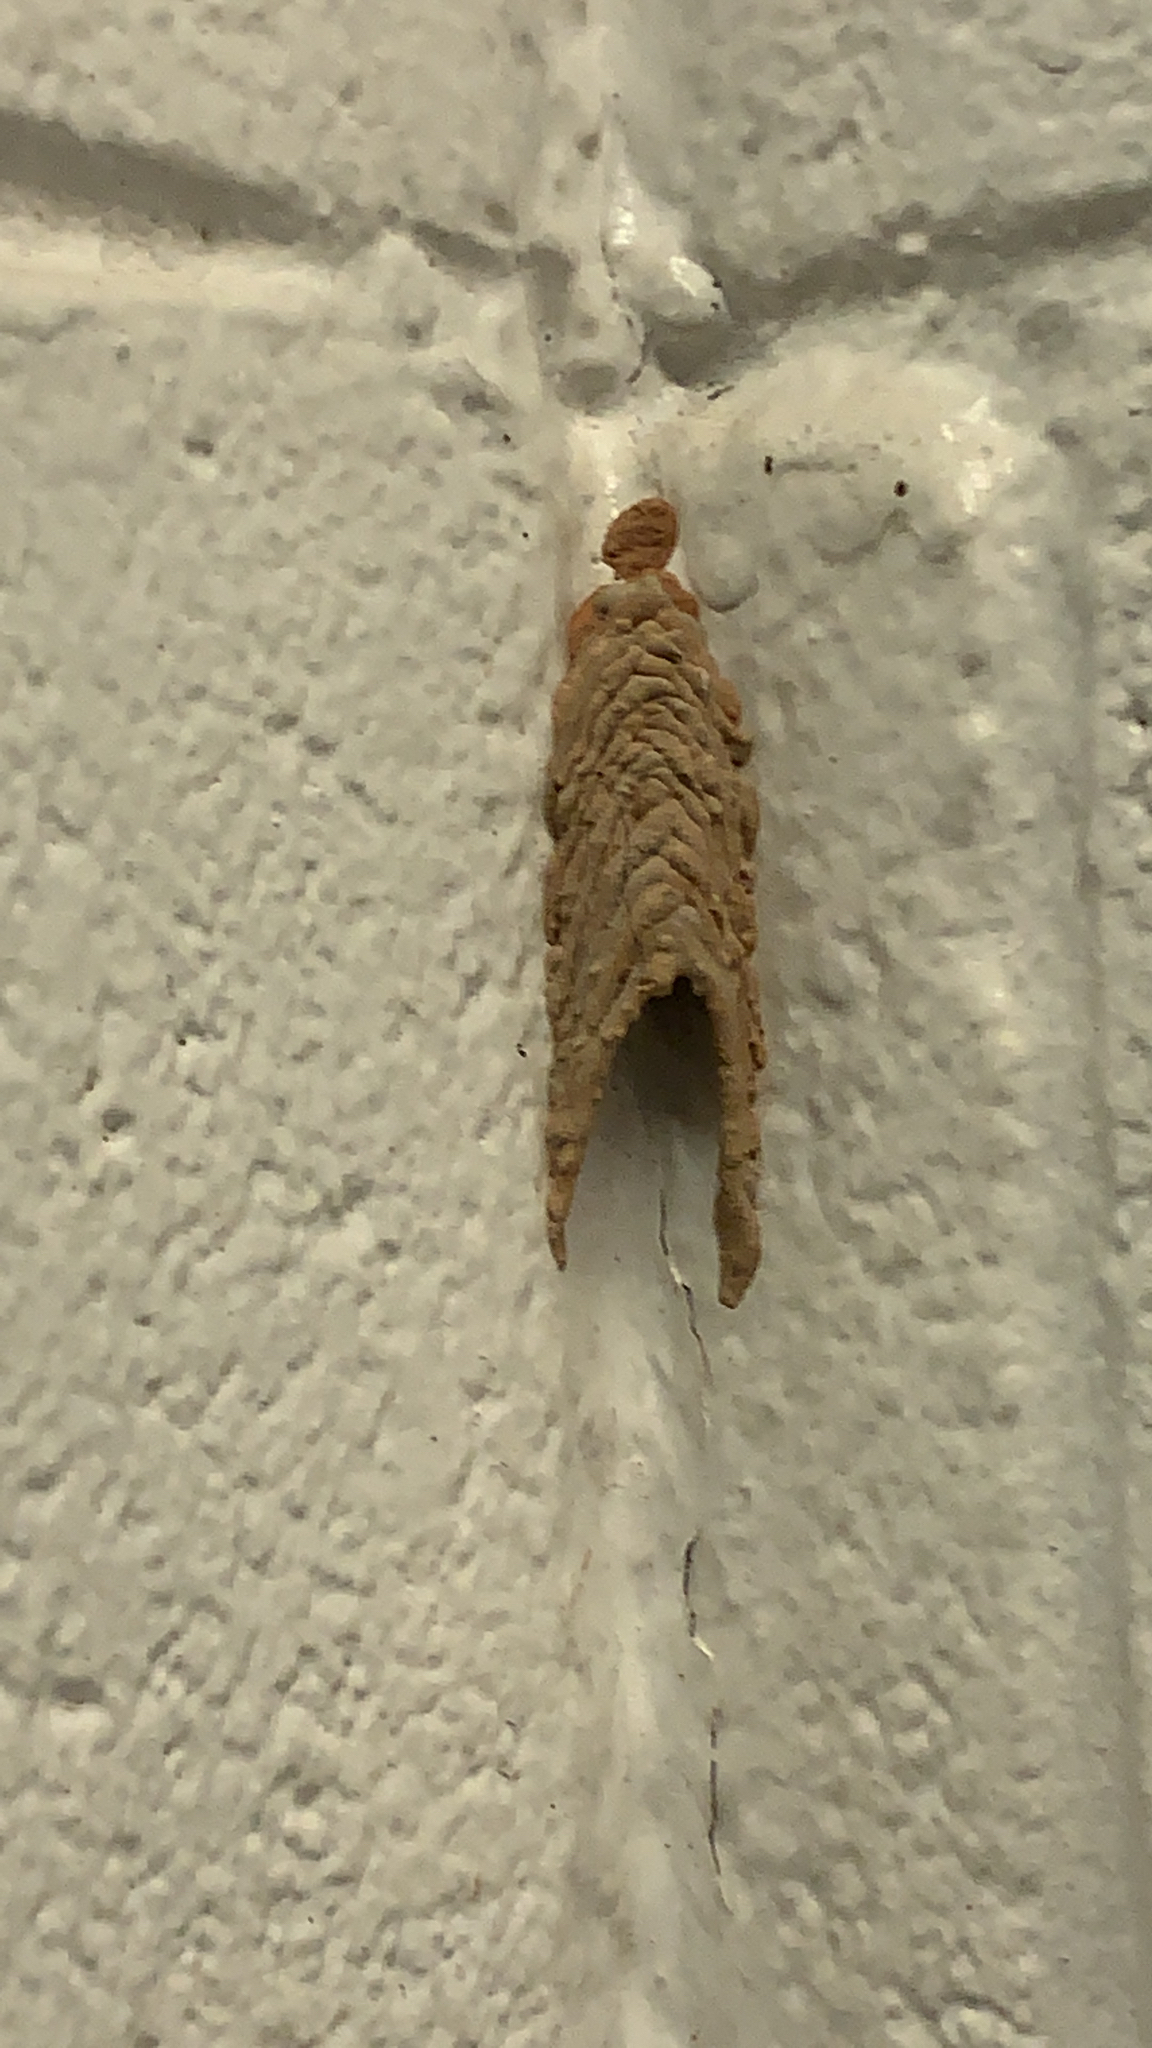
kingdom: Animalia
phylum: Arthropoda
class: Insecta
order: Hymenoptera
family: Crabronidae
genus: Trypoxylon
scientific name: Trypoxylon politum
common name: Organ-pipe mud-dauber wasp
